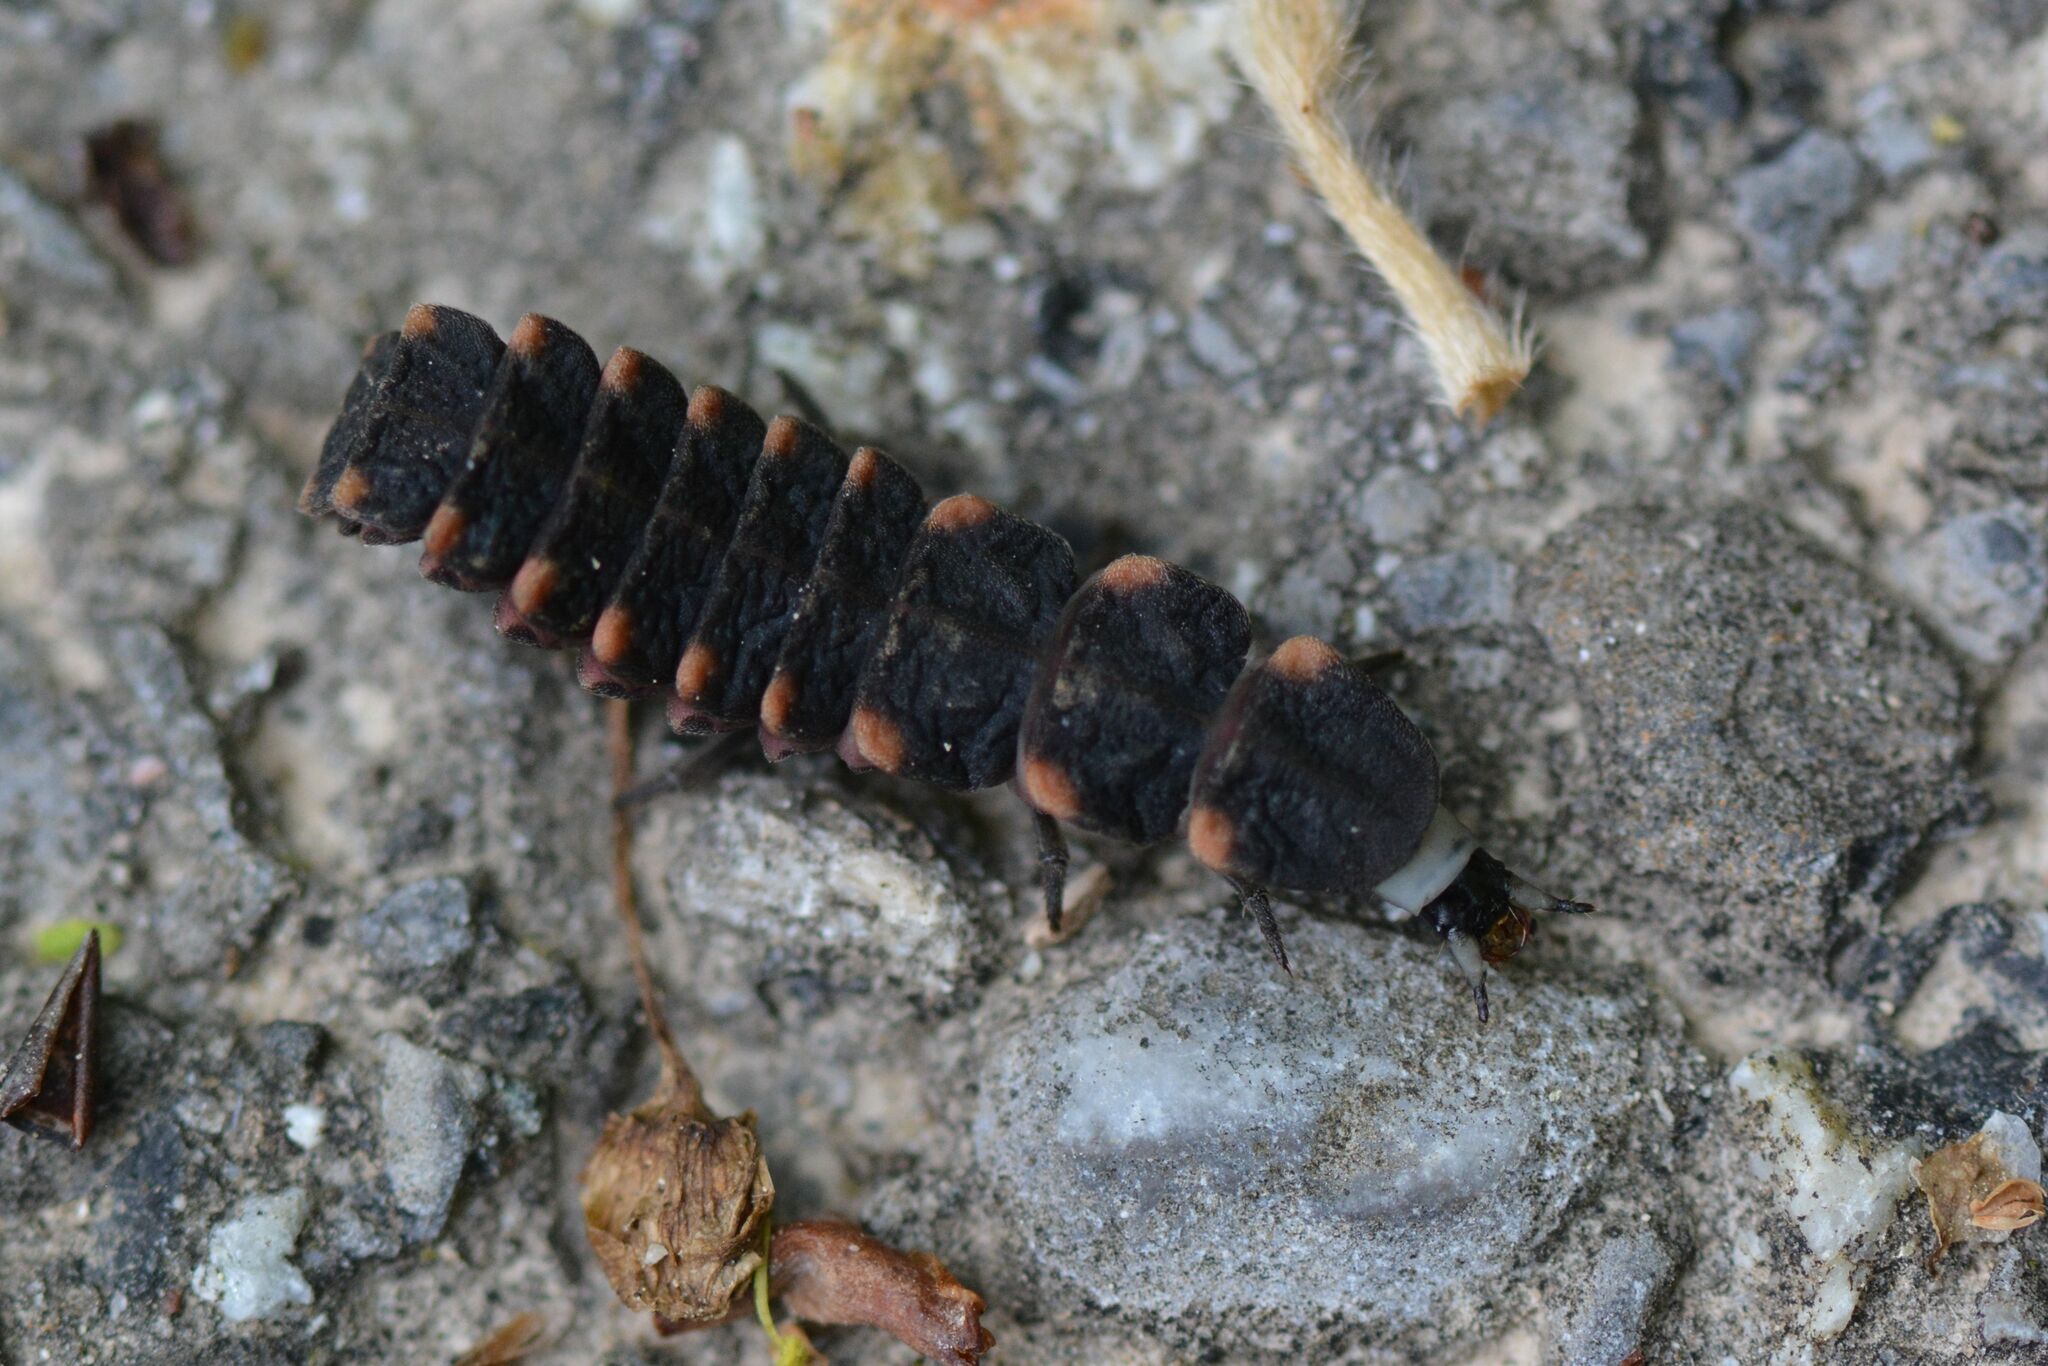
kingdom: Animalia
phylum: Arthropoda
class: Insecta
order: Coleoptera
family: Lampyridae
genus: Lampyris
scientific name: Lampyris noctiluca
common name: Glow-worm
